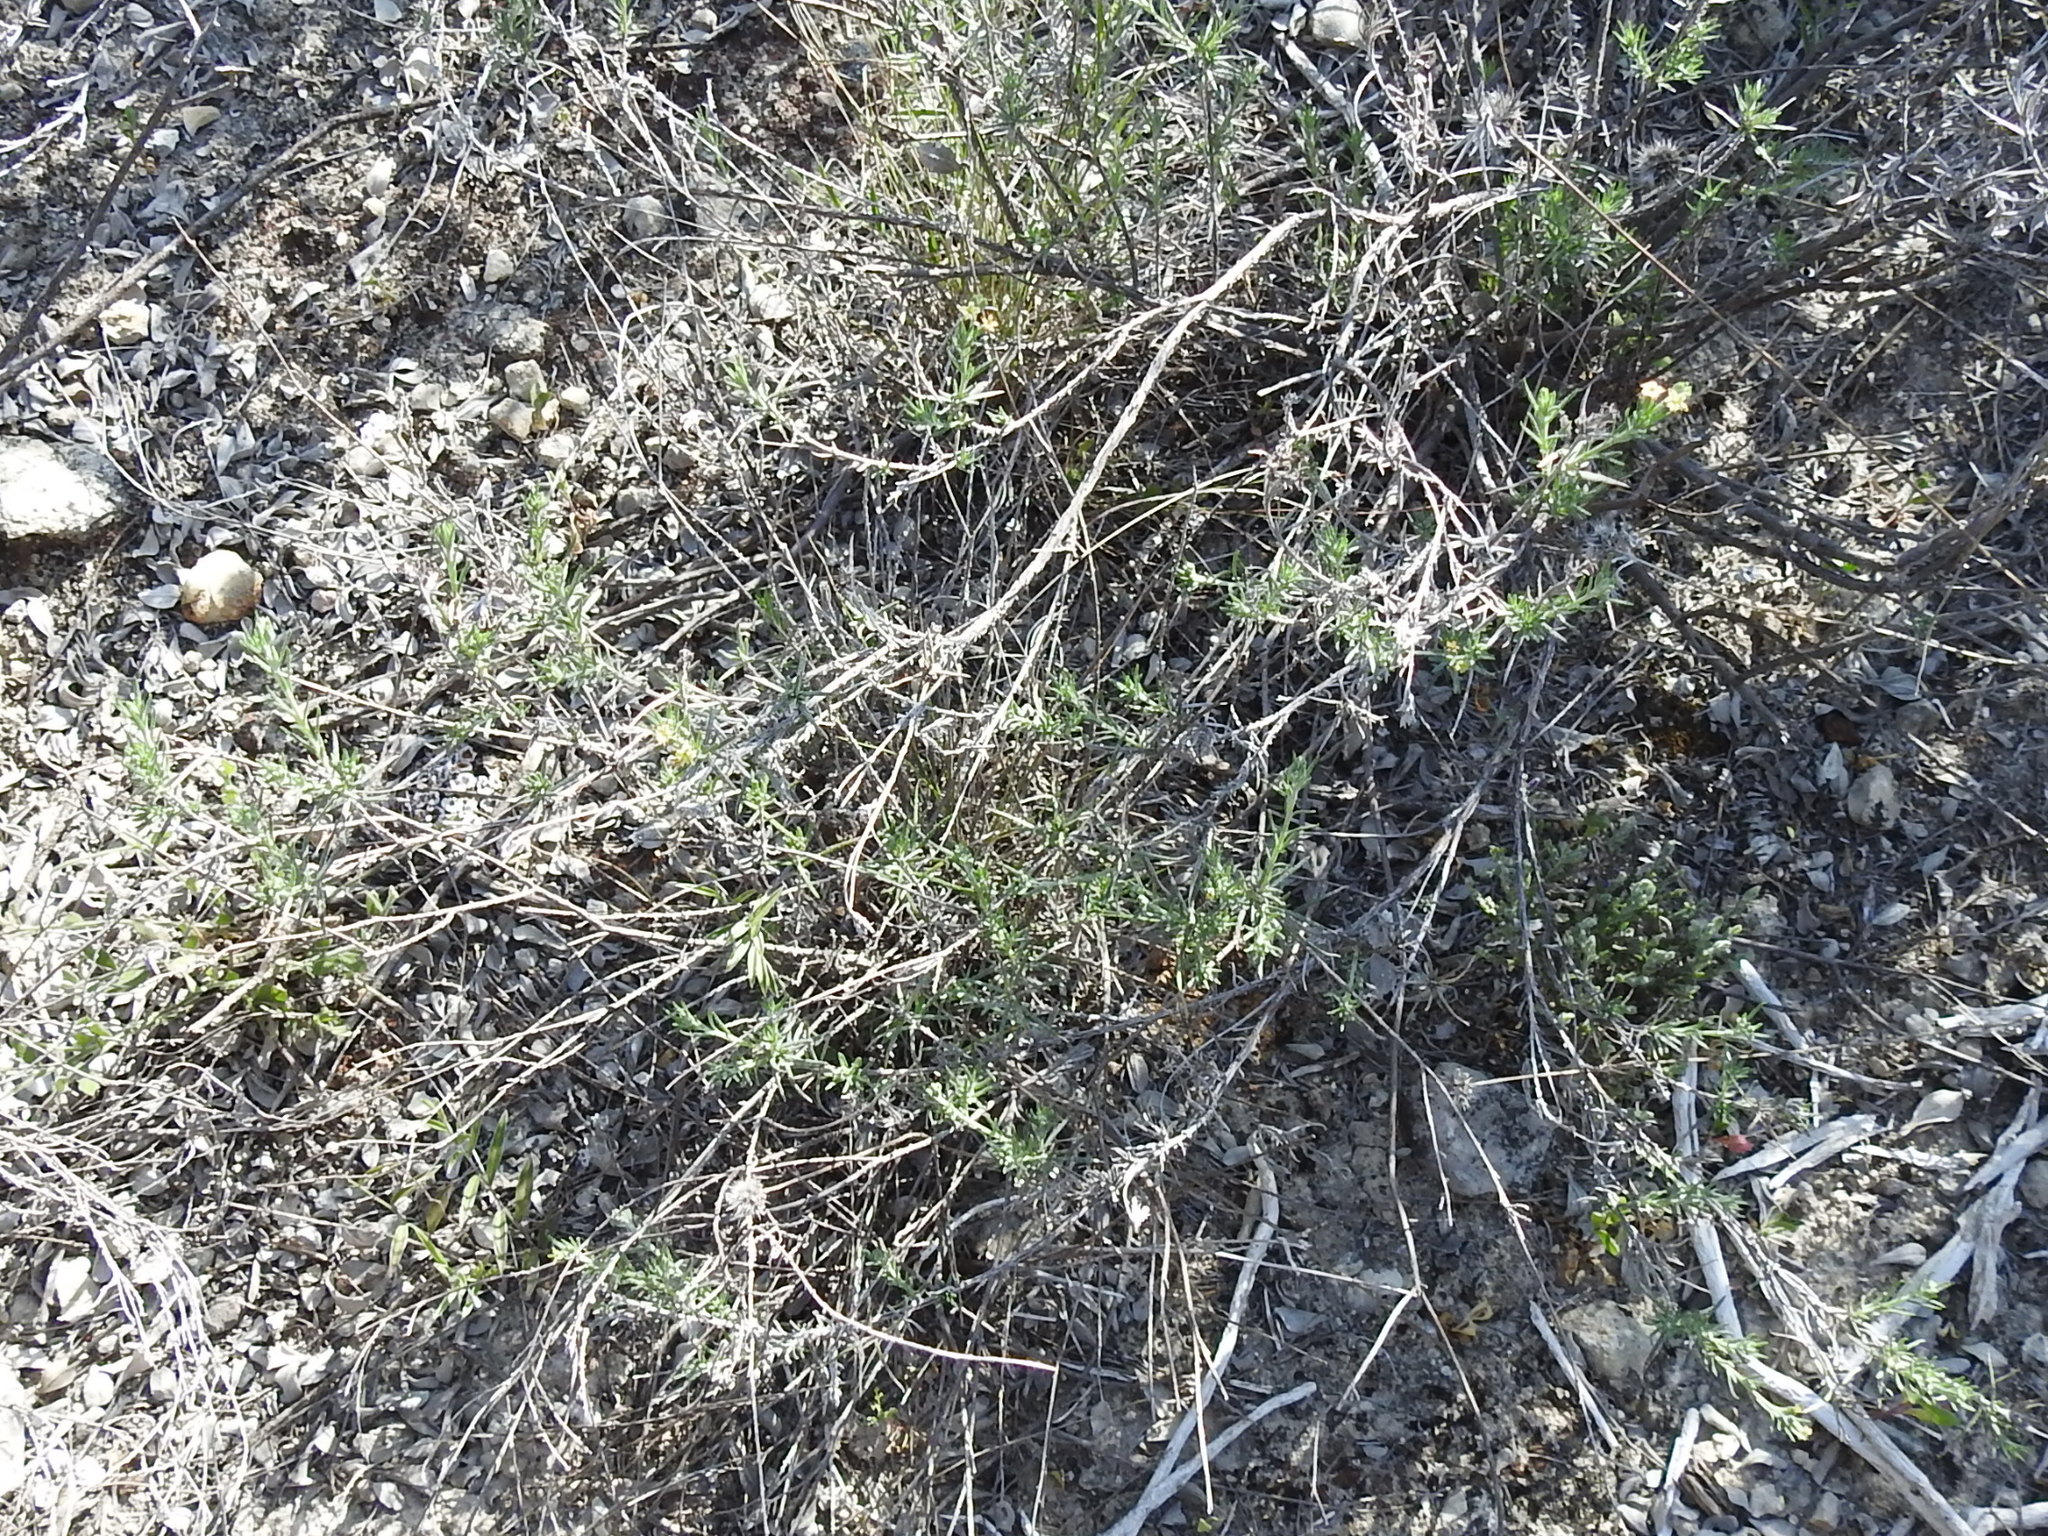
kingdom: Plantae
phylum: Tracheophyta
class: Magnoliopsida
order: Boraginales
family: Heliotropiaceae
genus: Euploca
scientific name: Euploca torreyi
